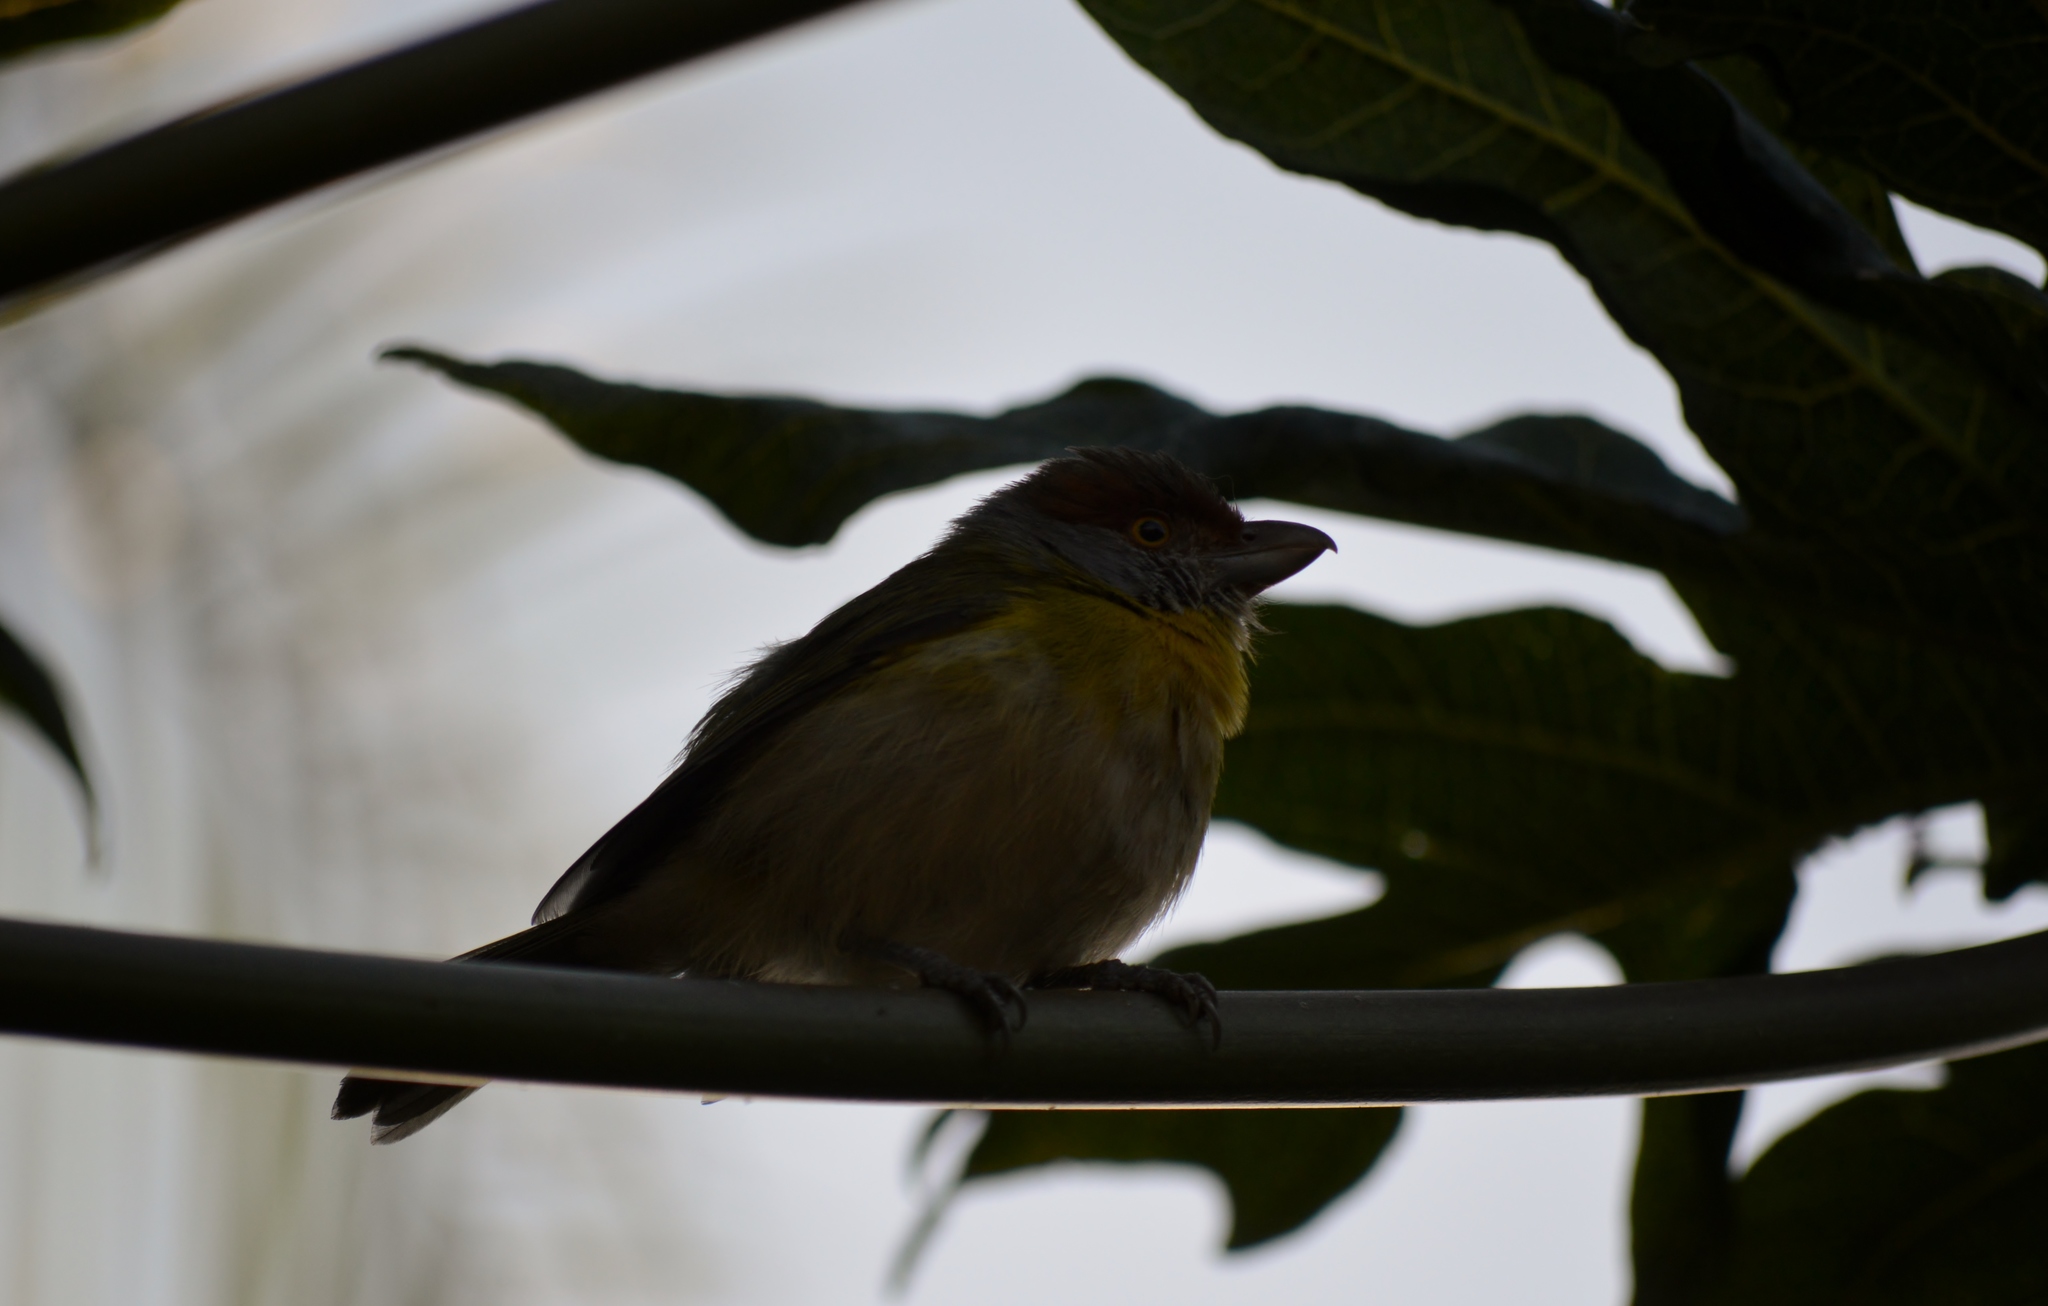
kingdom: Animalia
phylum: Chordata
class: Aves
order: Passeriformes
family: Vireonidae
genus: Cyclarhis
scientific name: Cyclarhis gujanensis
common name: Rufous-browed peppershrike
